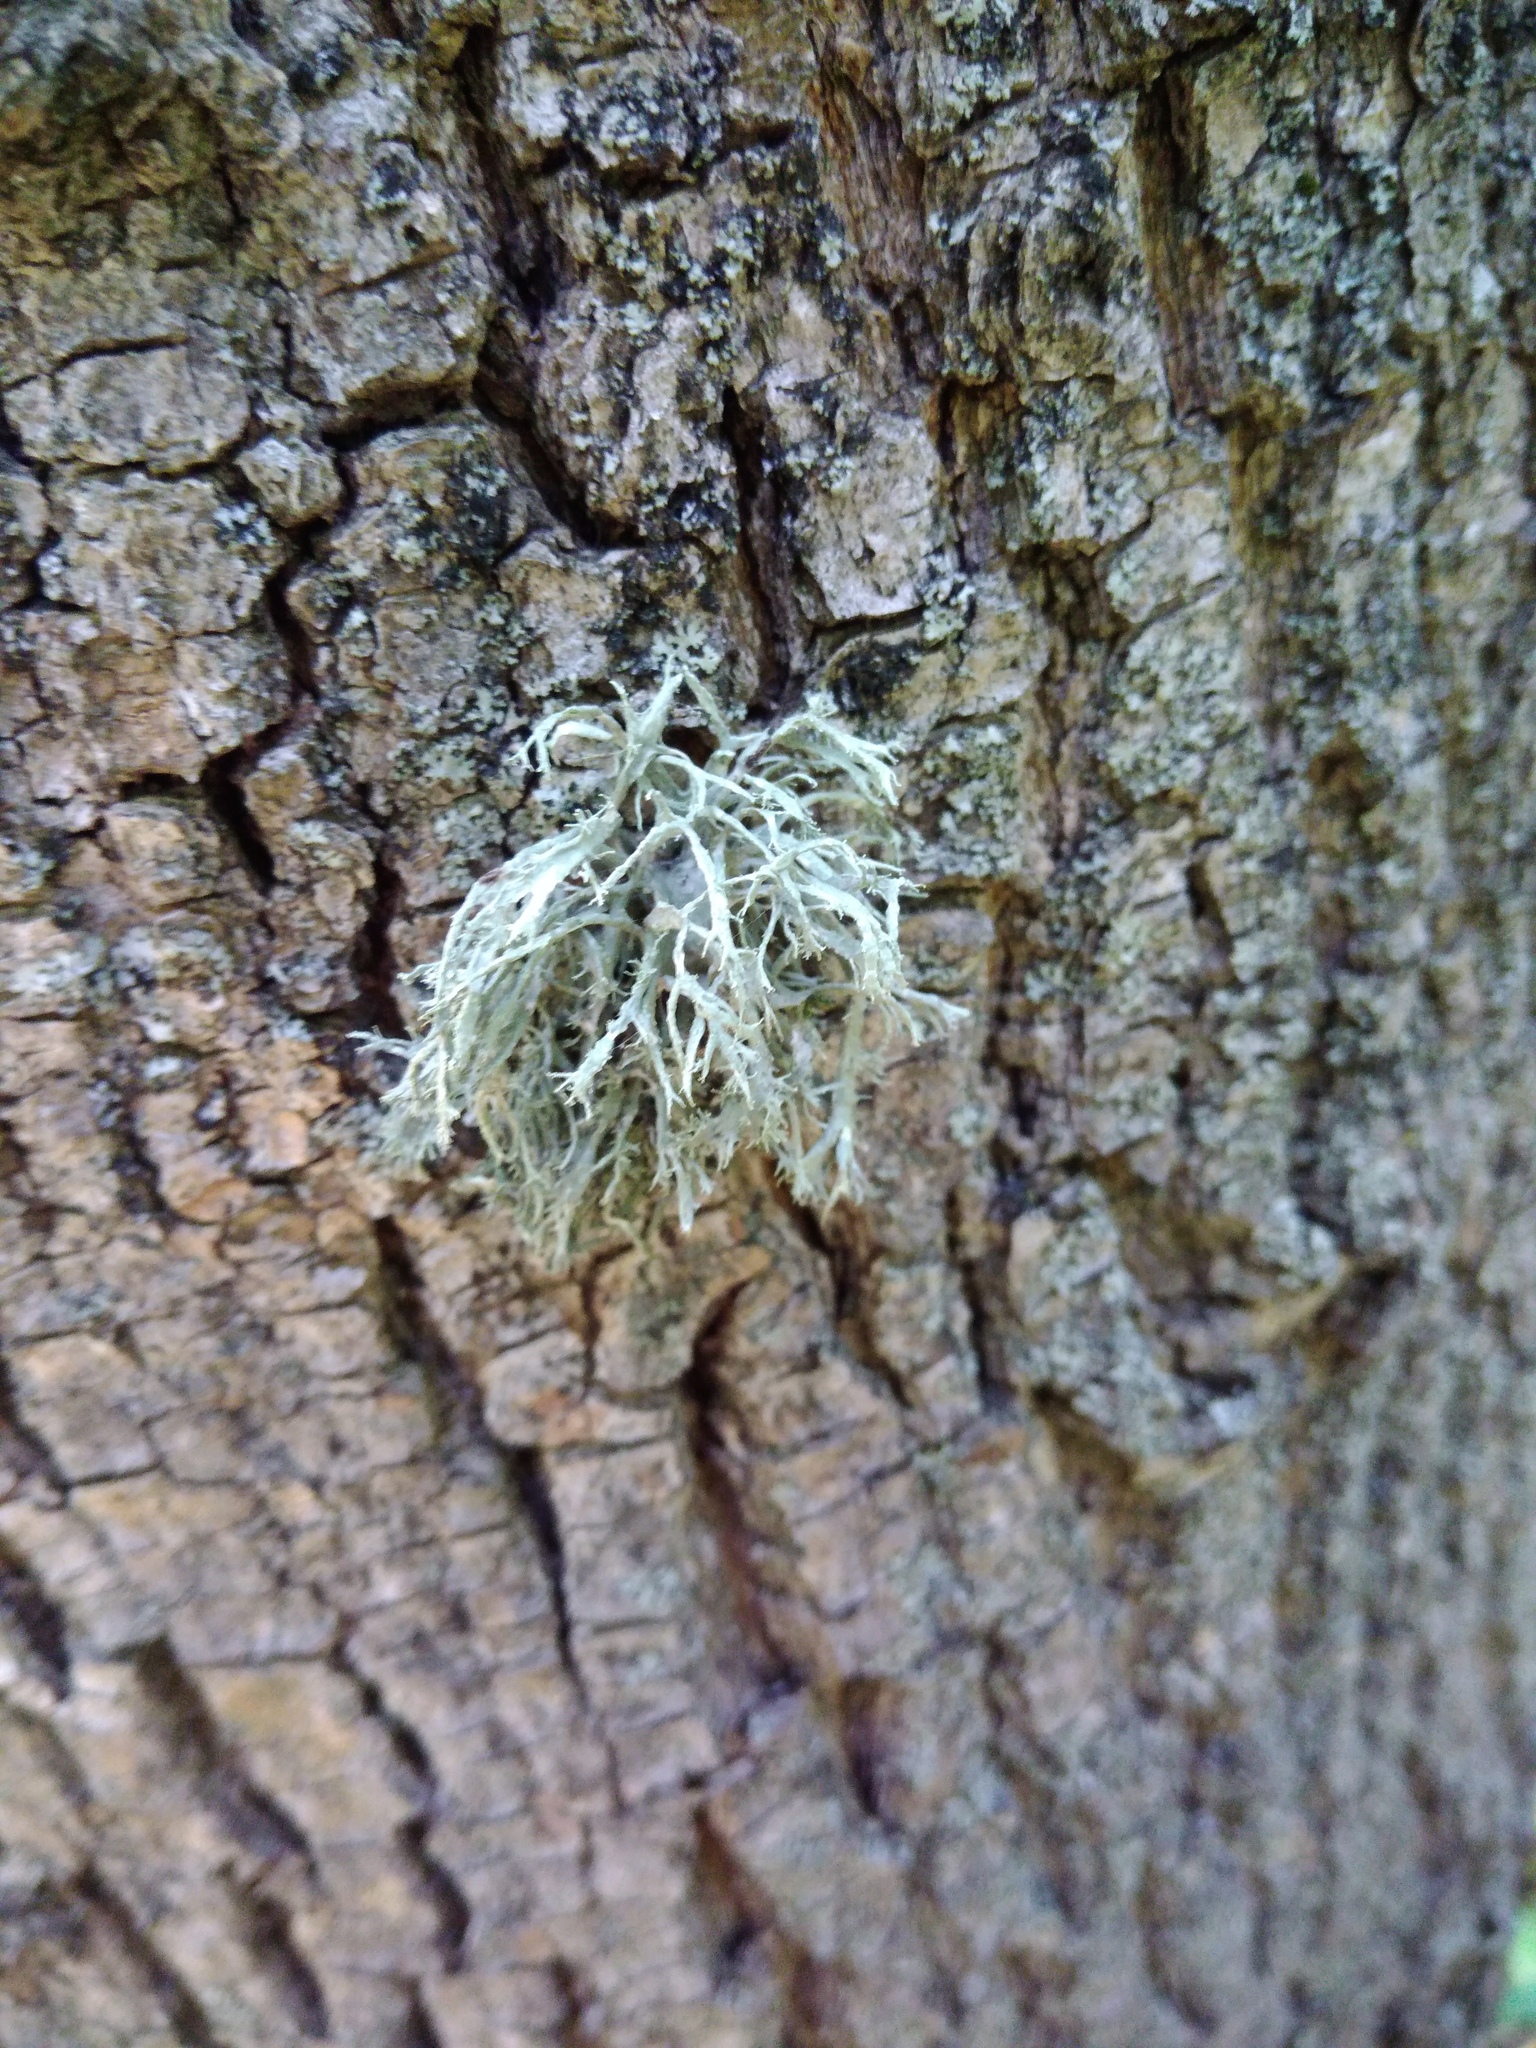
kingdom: Fungi
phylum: Ascomycota
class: Lecanoromycetes
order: Lecanorales
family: Ramalinaceae
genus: Ramalina
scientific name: Ramalina farinacea
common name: Farinose cartilage lichen
